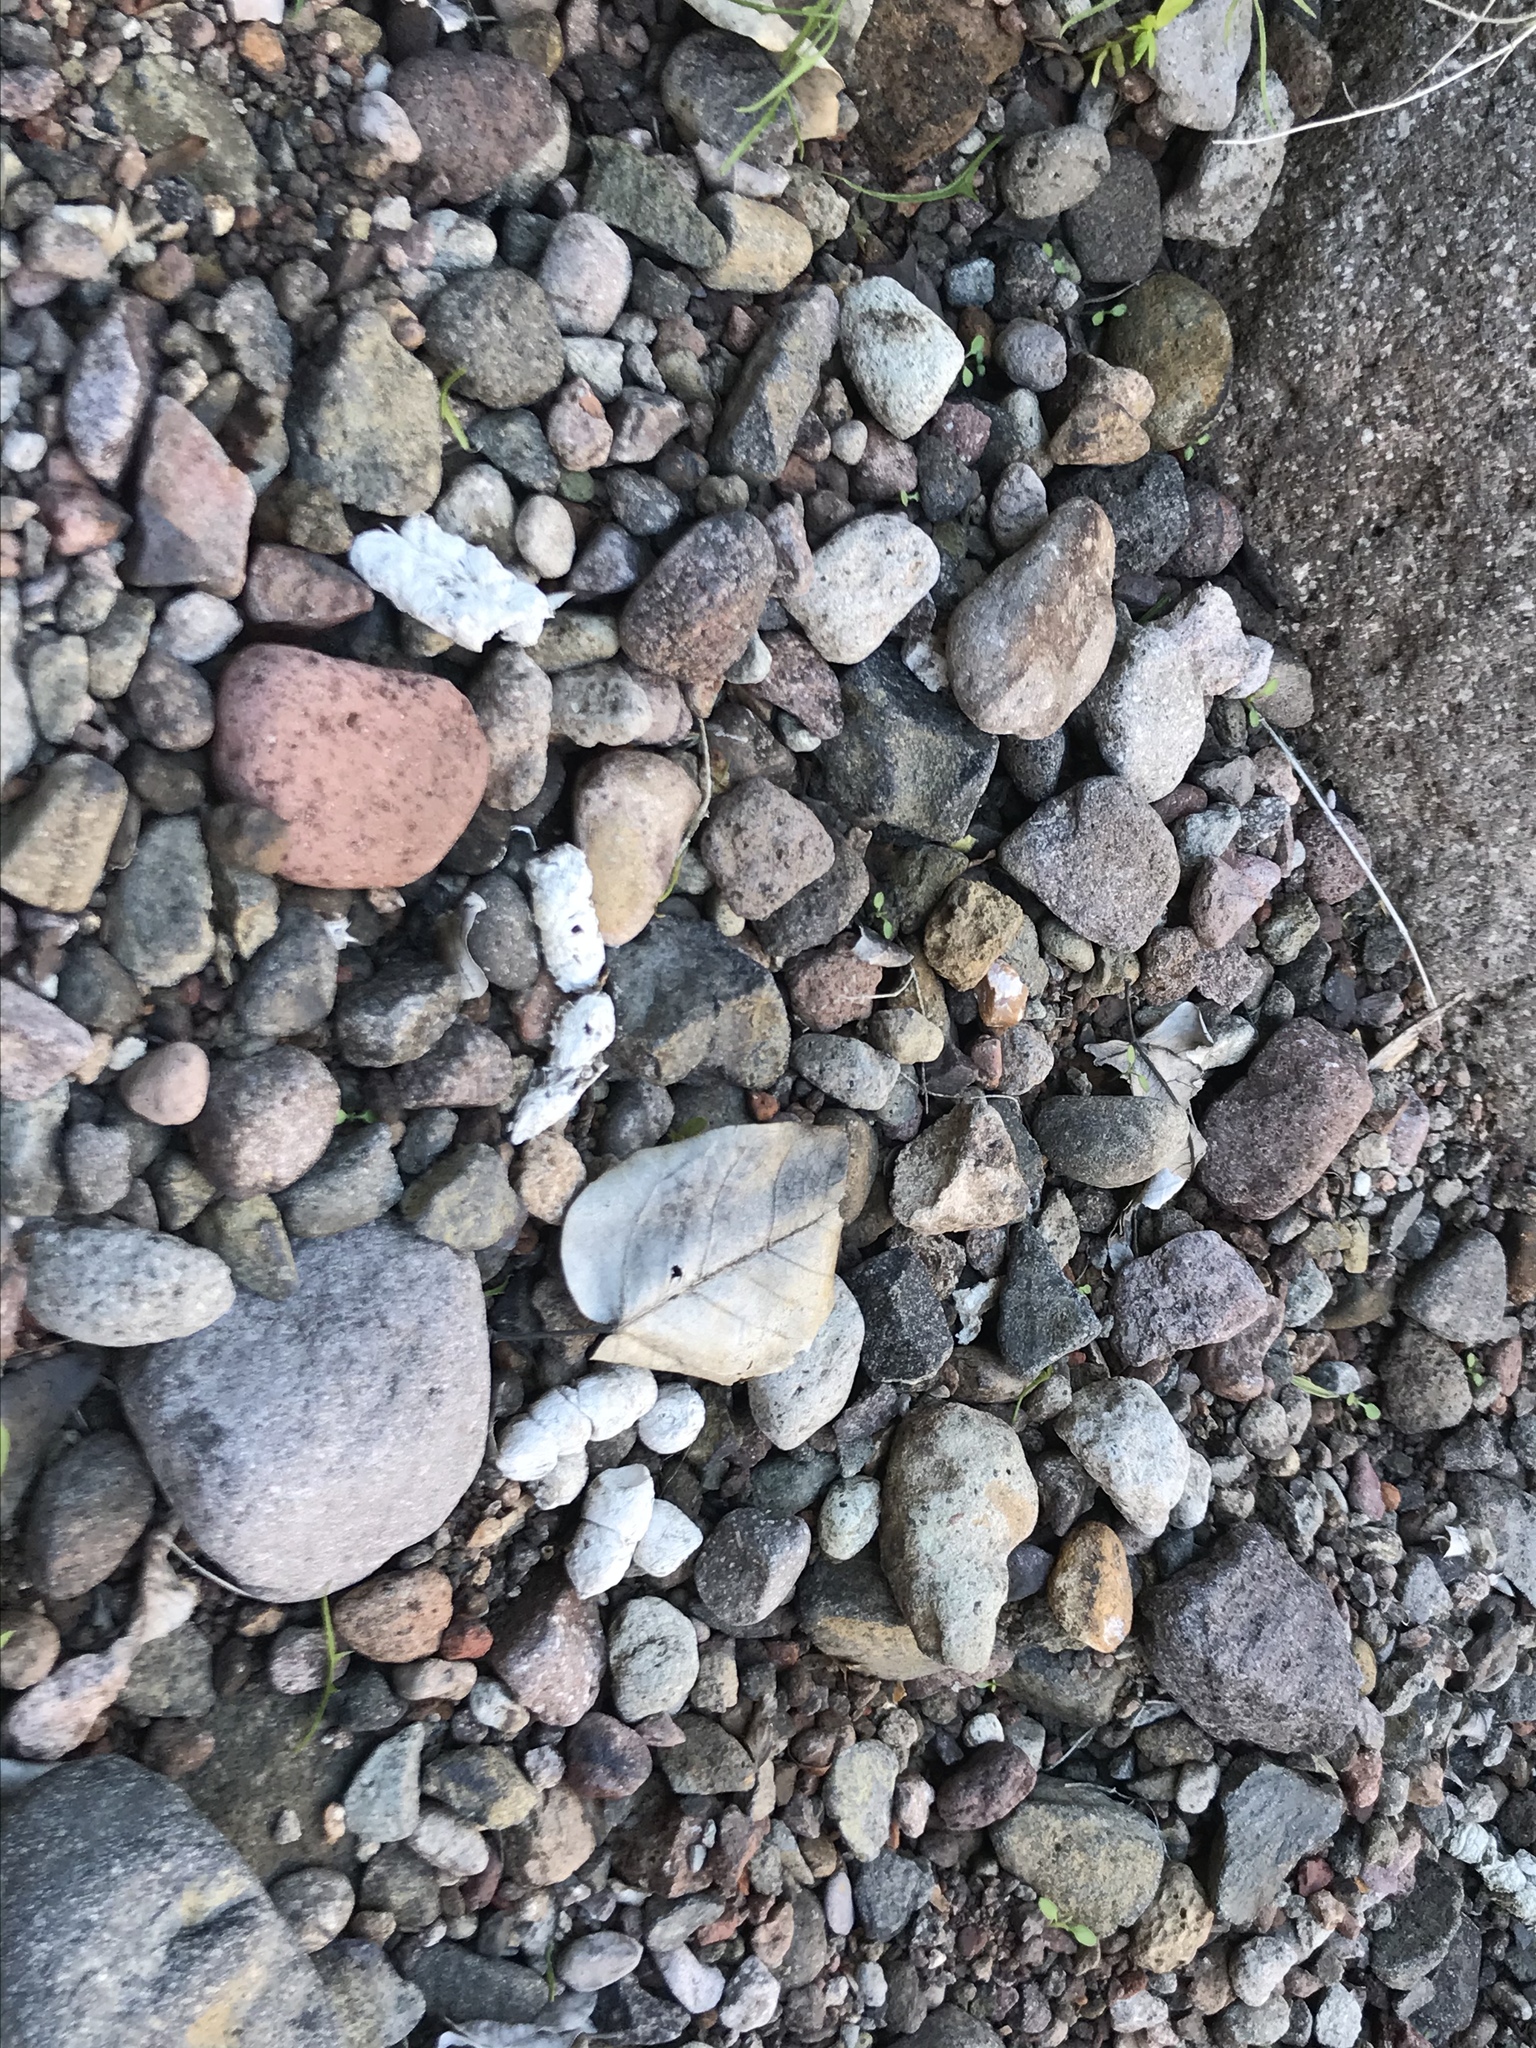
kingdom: Animalia
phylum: Chordata
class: Mammalia
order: Carnivora
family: Felidae
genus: Lynx
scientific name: Lynx rufus
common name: Bobcat
